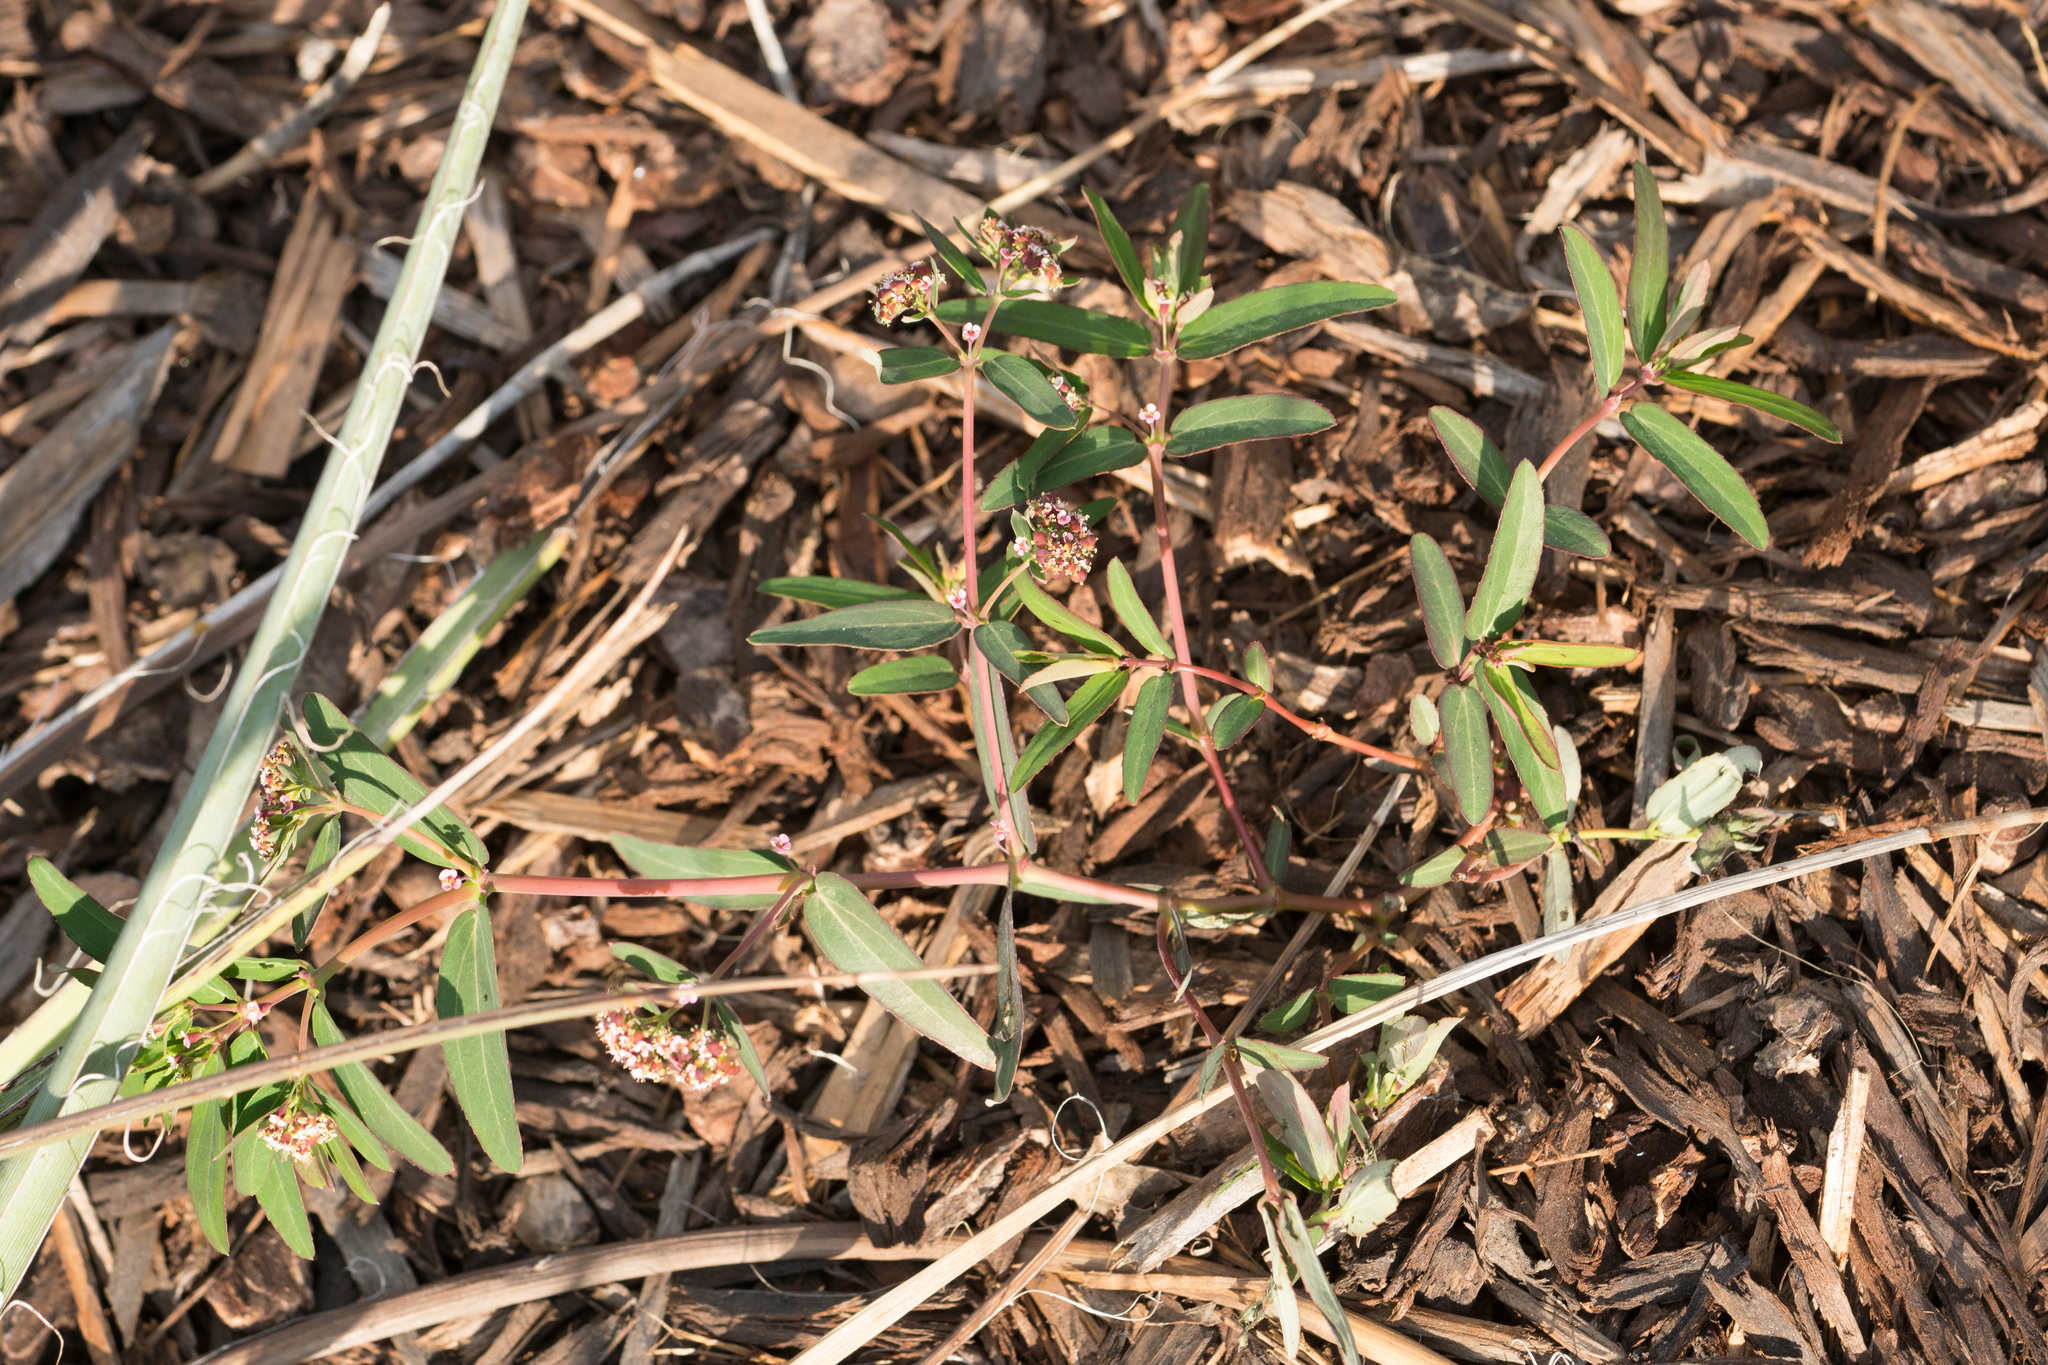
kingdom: Plantae
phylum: Tracheophyta
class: Magnoliopsida
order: Malpighiales
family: Euphorbiaceae
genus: Euphorbia
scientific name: Euphorbia hypericifolia
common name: Graceful sandmat
